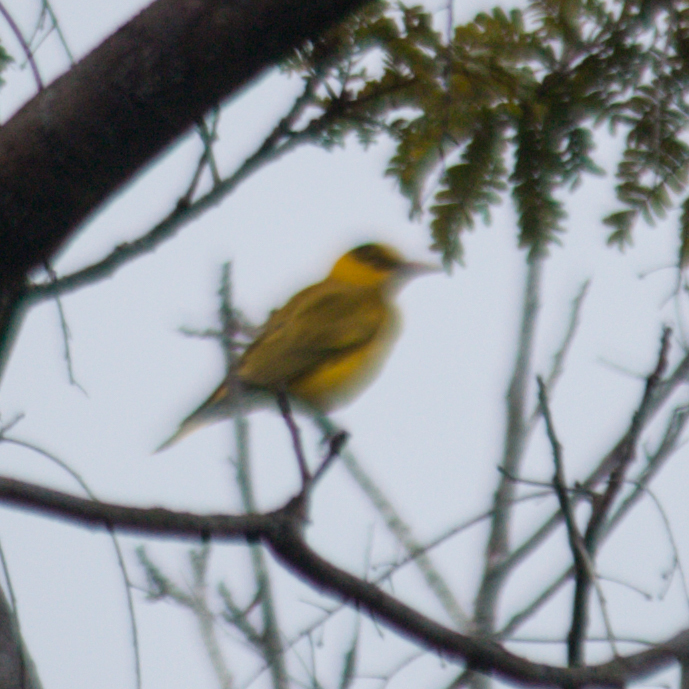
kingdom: Animalia
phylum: Chordata
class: Aves
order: Passeriformes
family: Oriolidae
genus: Oriolus
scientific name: Oriolus chinensis
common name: Black-naped oriole
